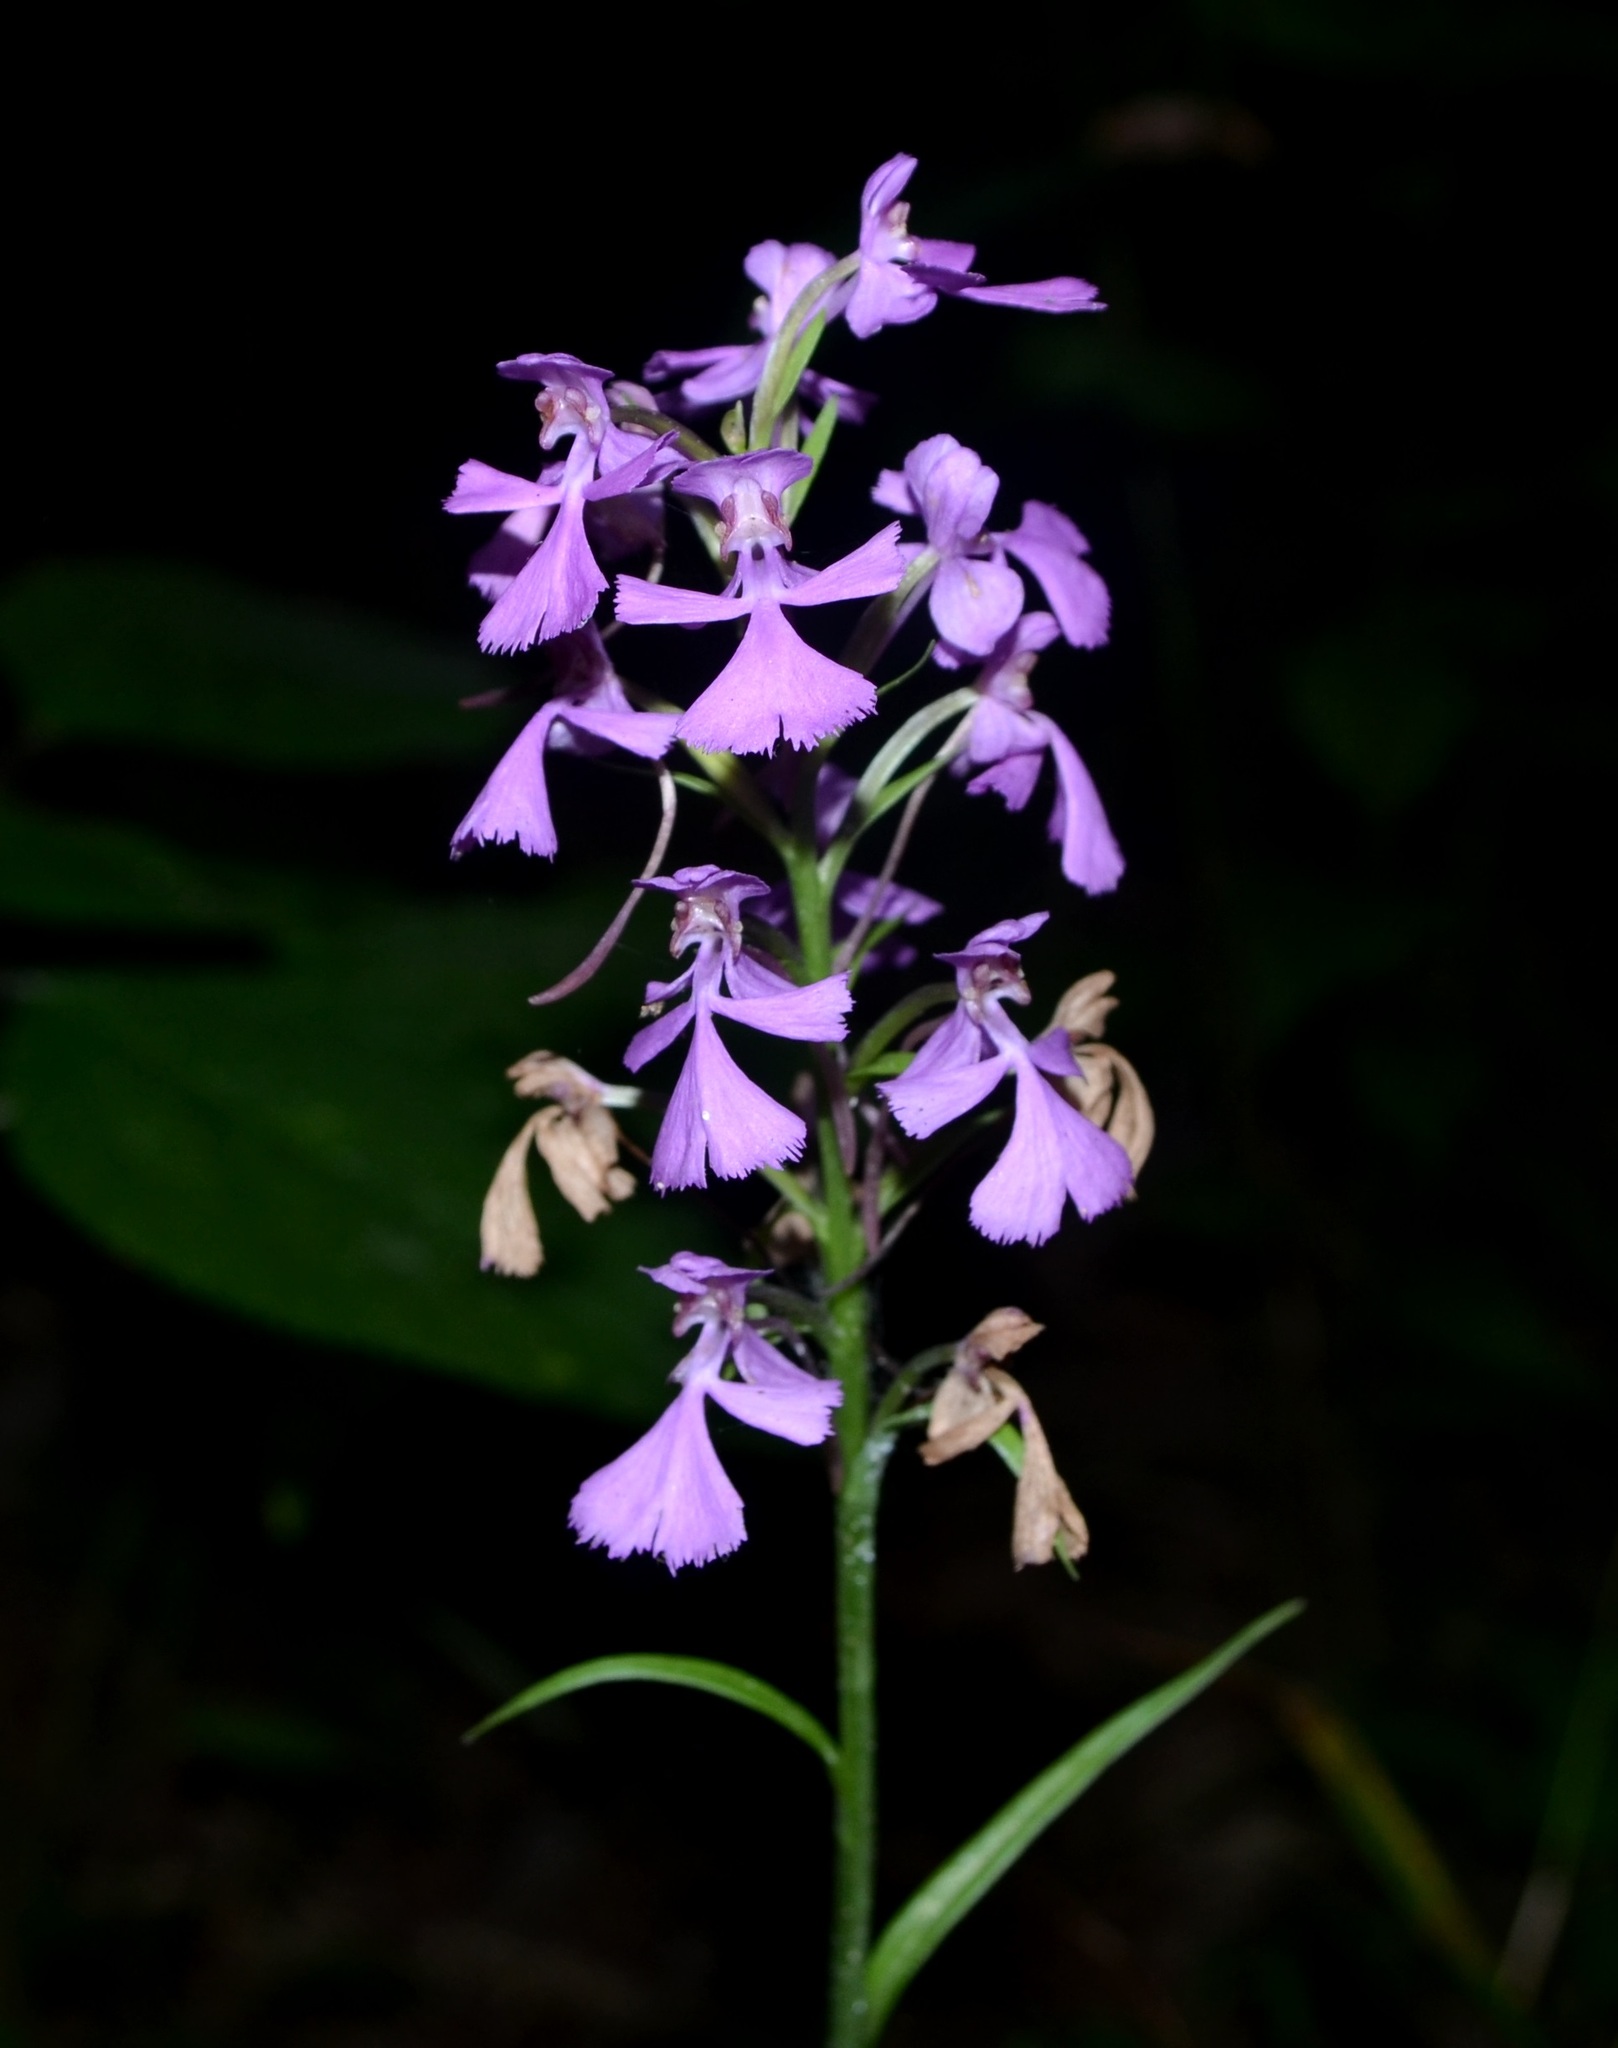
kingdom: Plantae
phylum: Tracheophyta
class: Liliopsida
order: Asparagales
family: Orchidaceae
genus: Platanthera
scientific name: Platanthera peramoena
